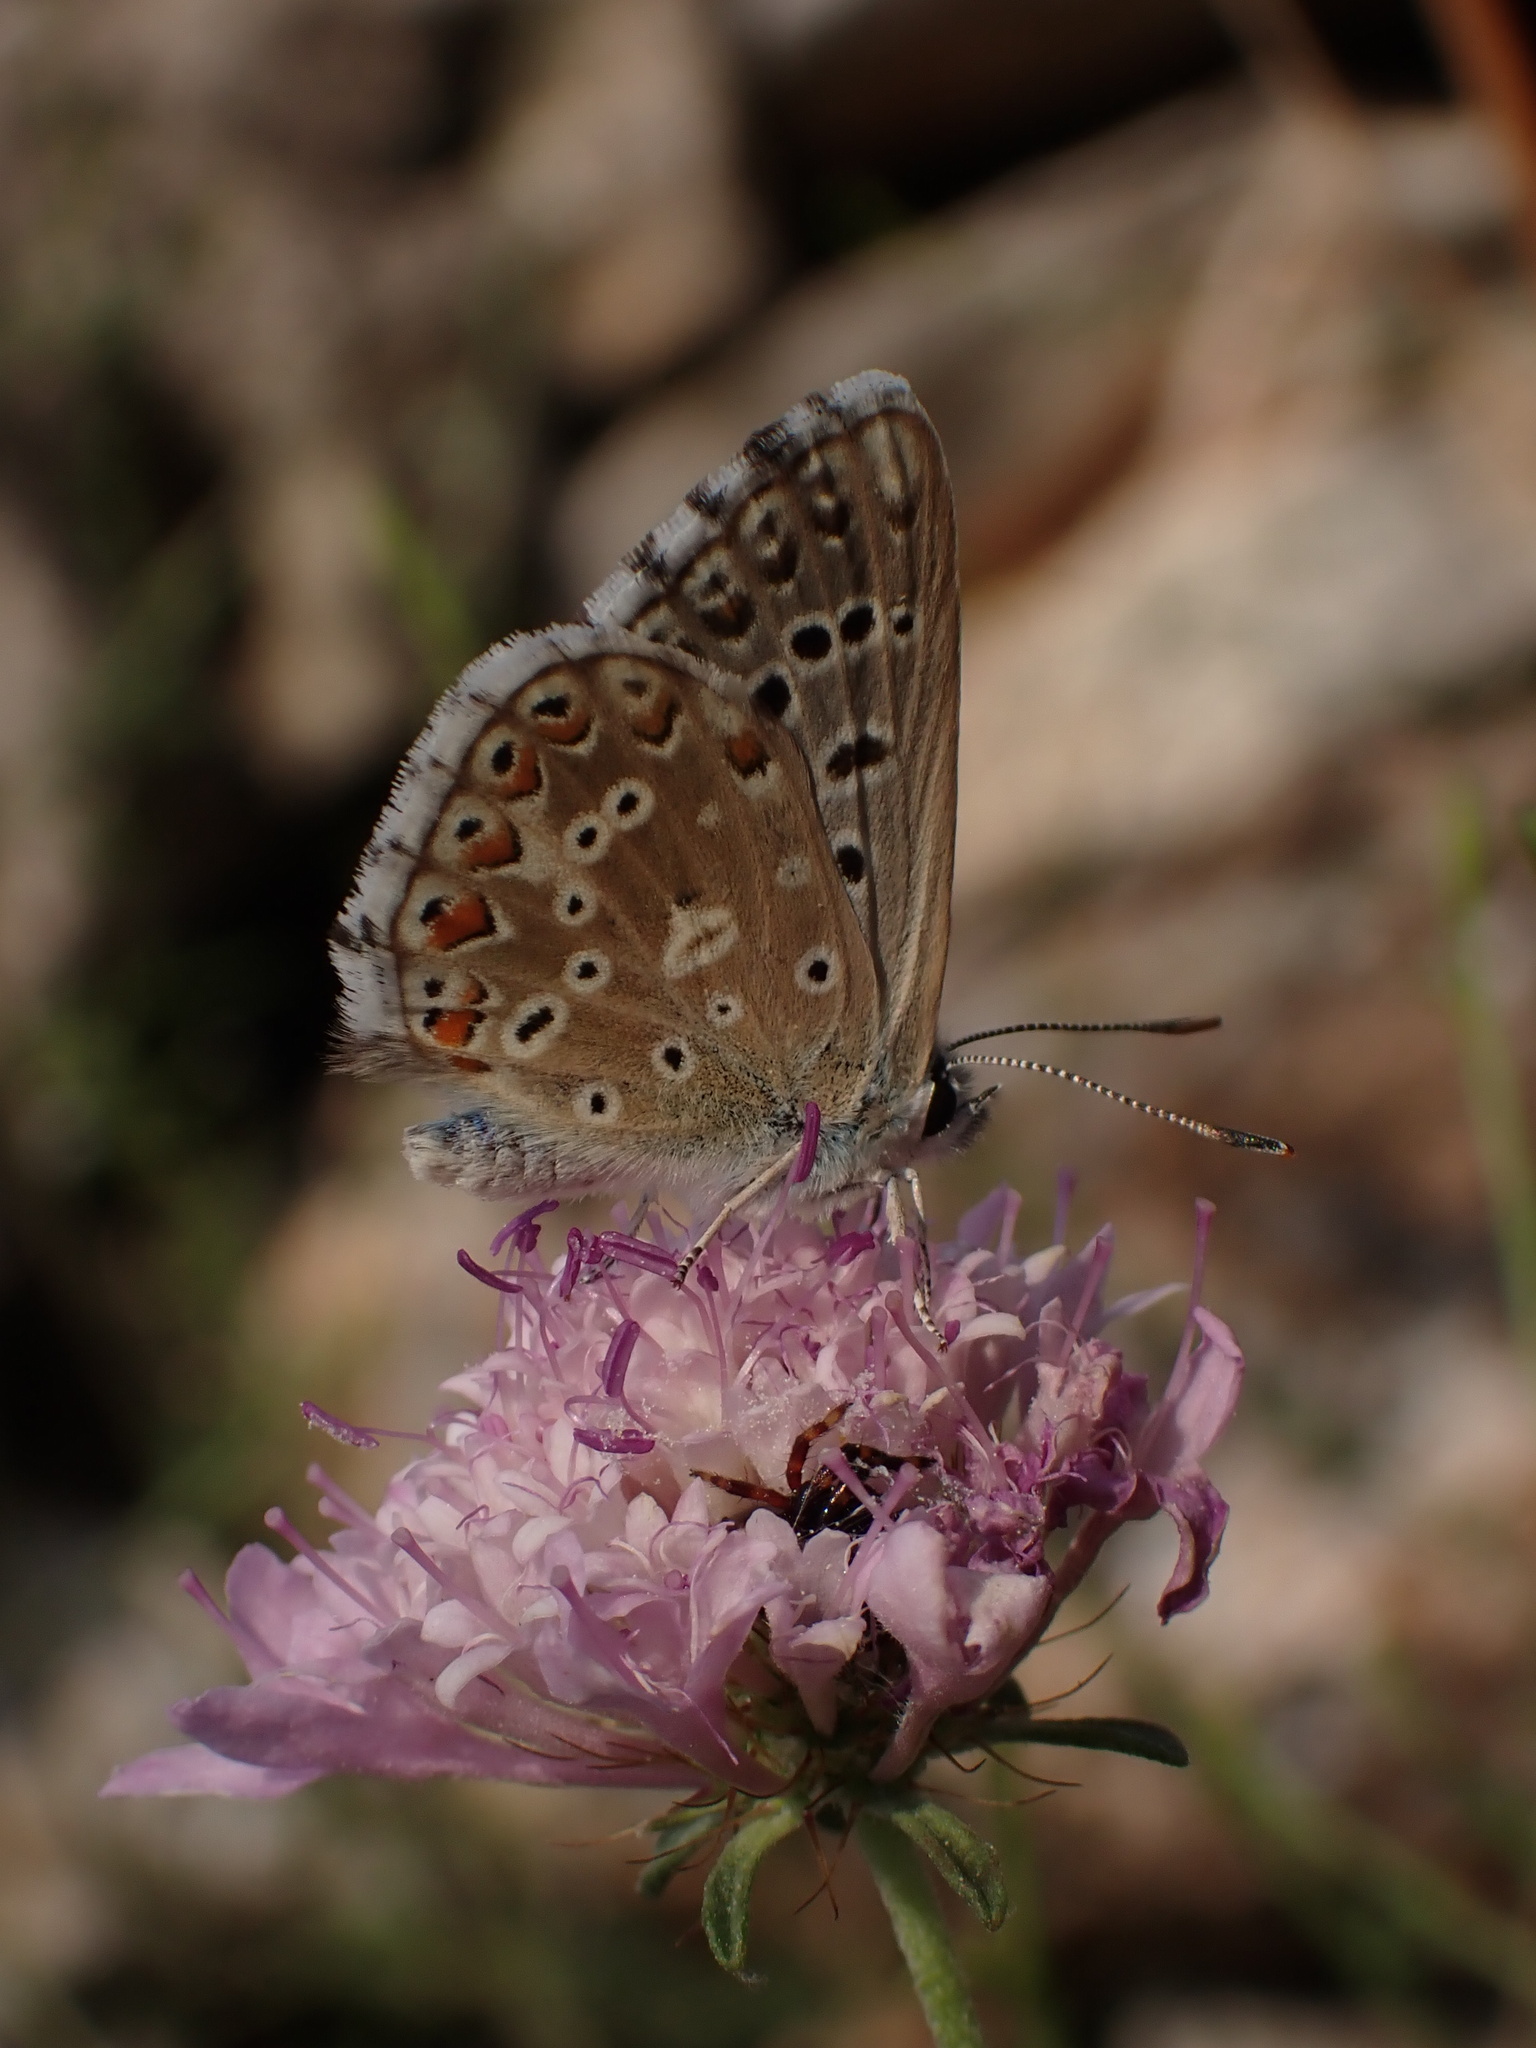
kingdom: Animalia
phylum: Arthropoda
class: Insecta
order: Lepidoptera
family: Lycaenidae
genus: Lysandra
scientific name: Lysandra bellargus
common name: Adonis blue
